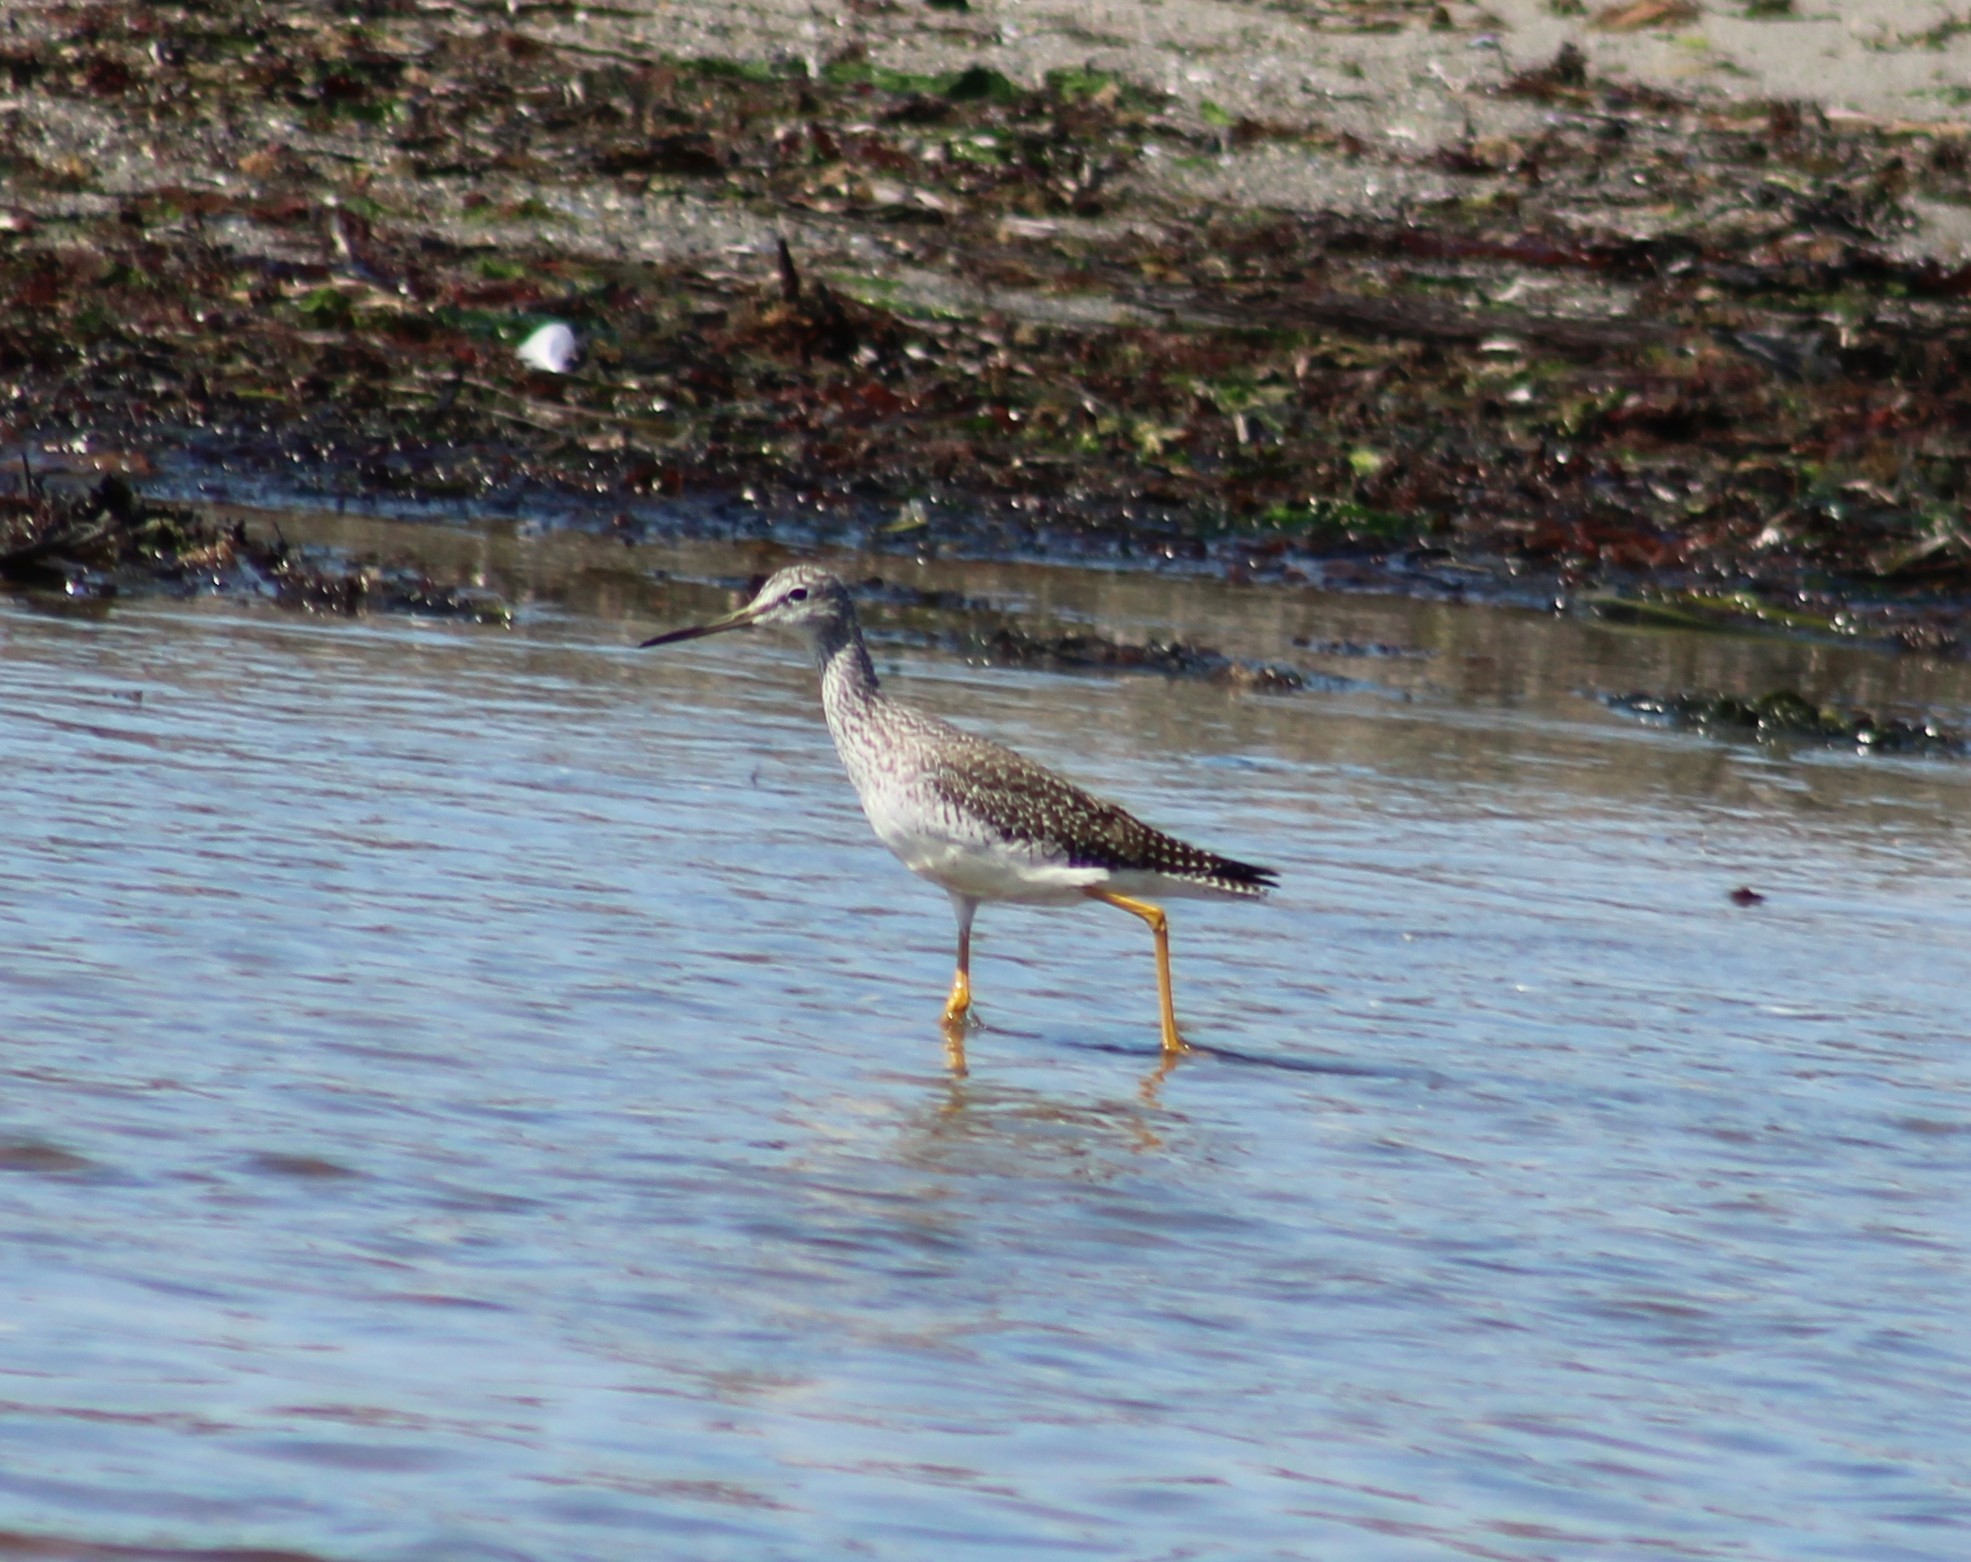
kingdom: Animalia
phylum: Chordata
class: Aves
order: Charadriiformes
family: Scolopacidae
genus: Tringa
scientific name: Tringa melanoleuca
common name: Greater yellowlegs
